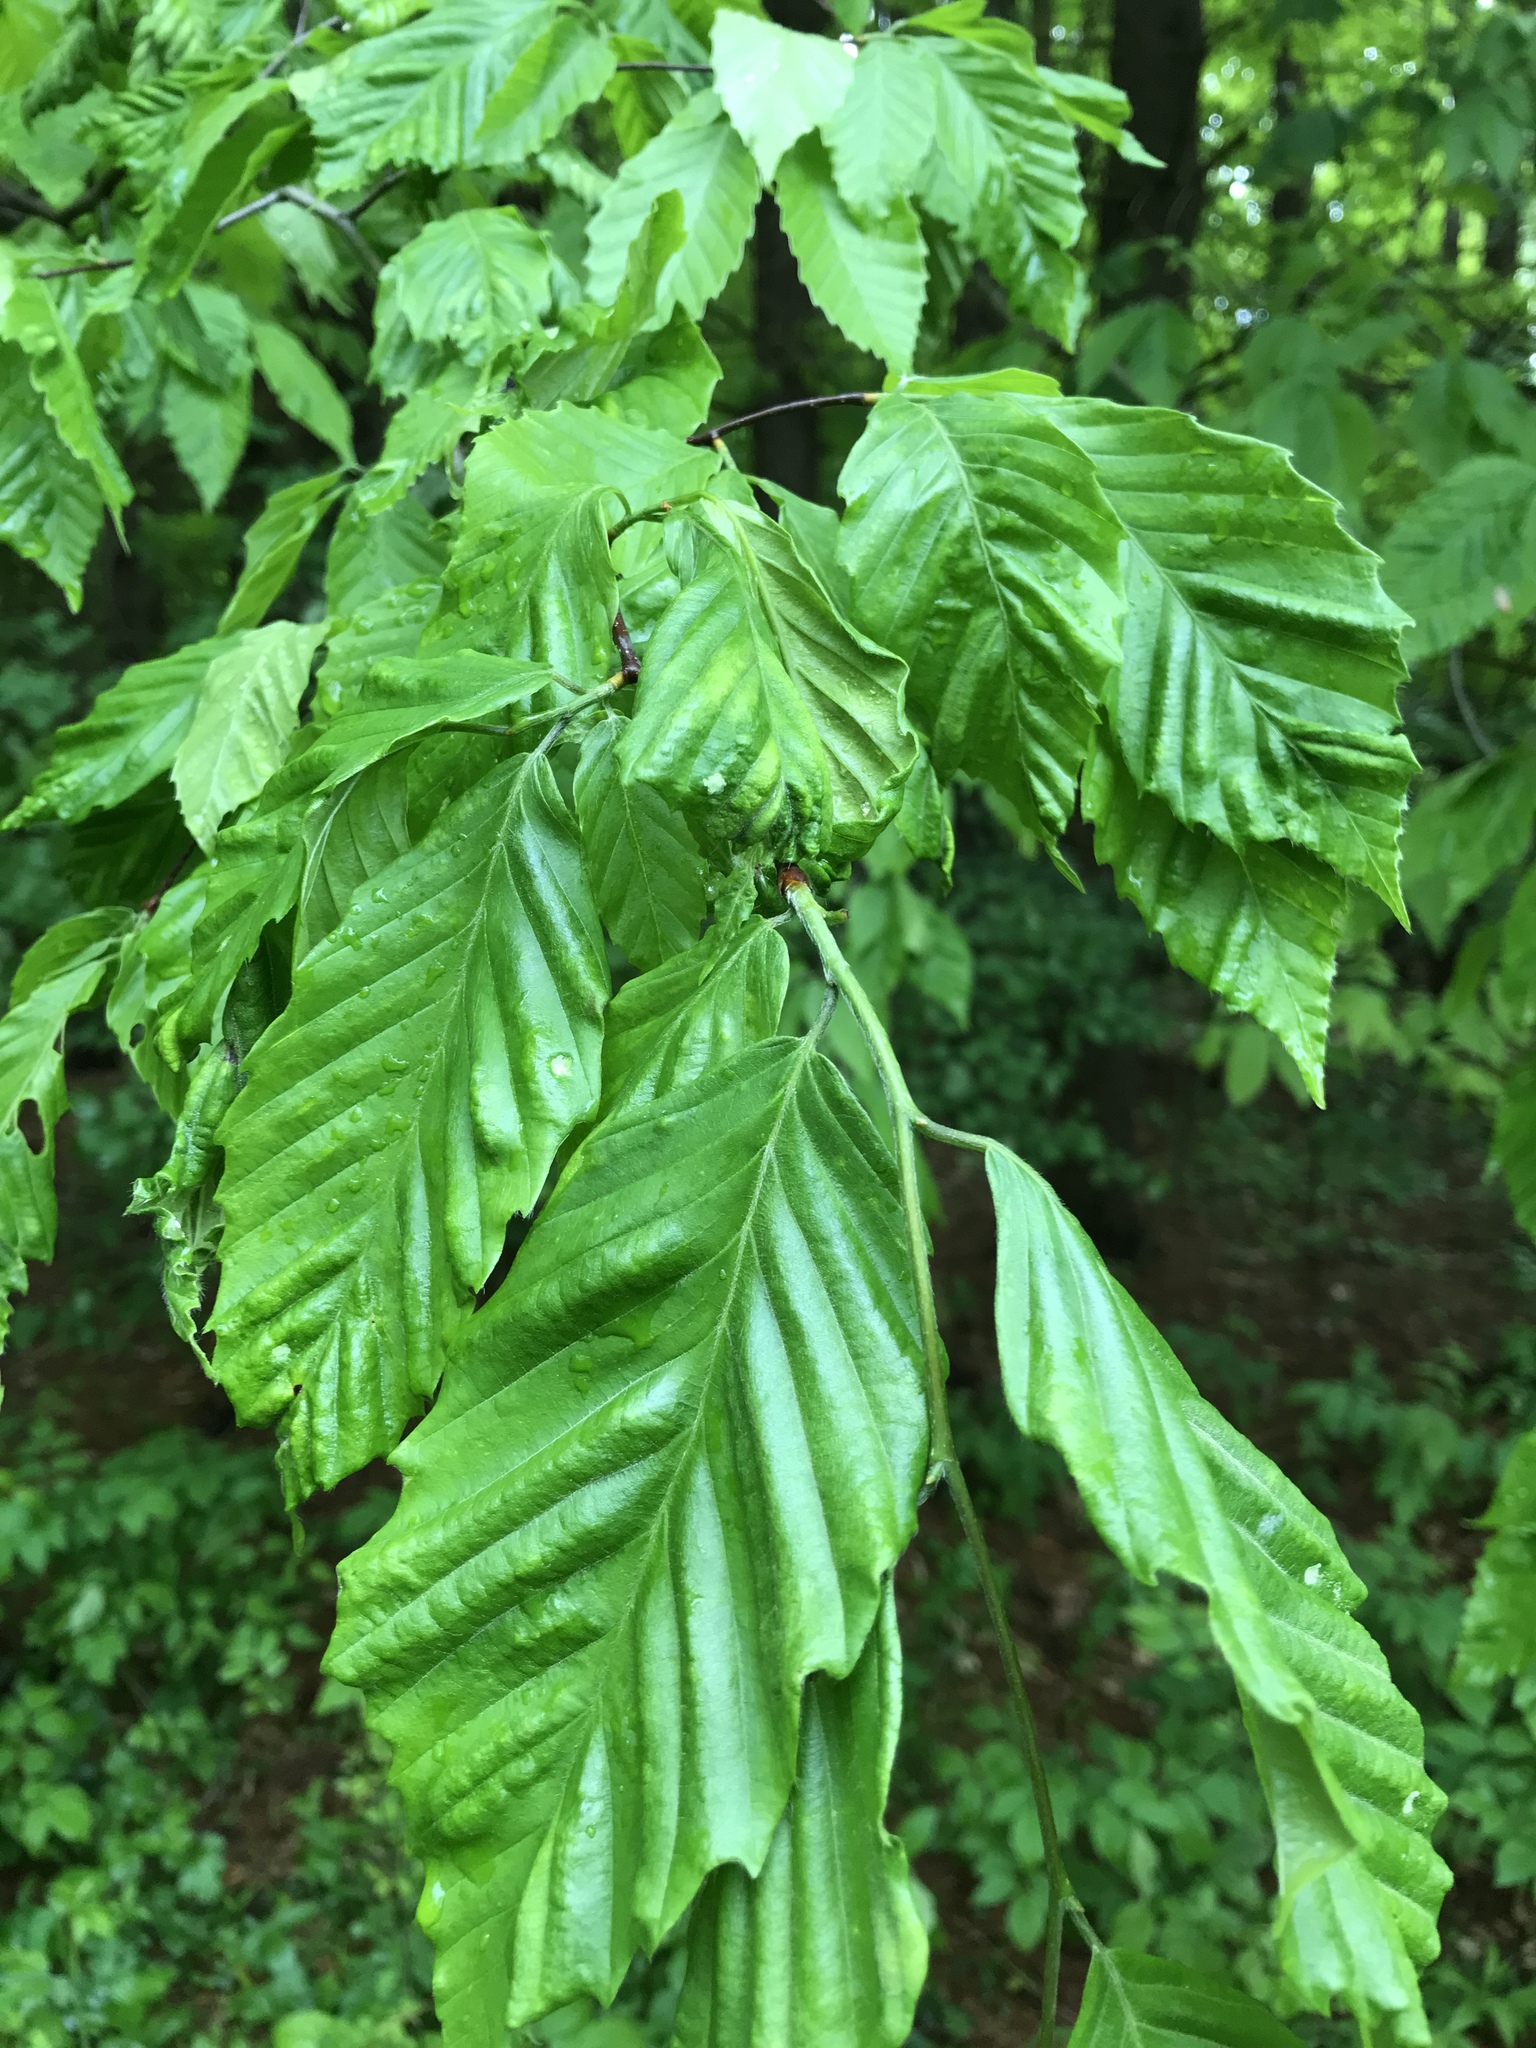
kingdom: Plantae
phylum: Tracheophyta
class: Magnoliopsida
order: Fagales
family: Fagaceae
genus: Fagus
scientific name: Fagus grandifolia
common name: American beech
